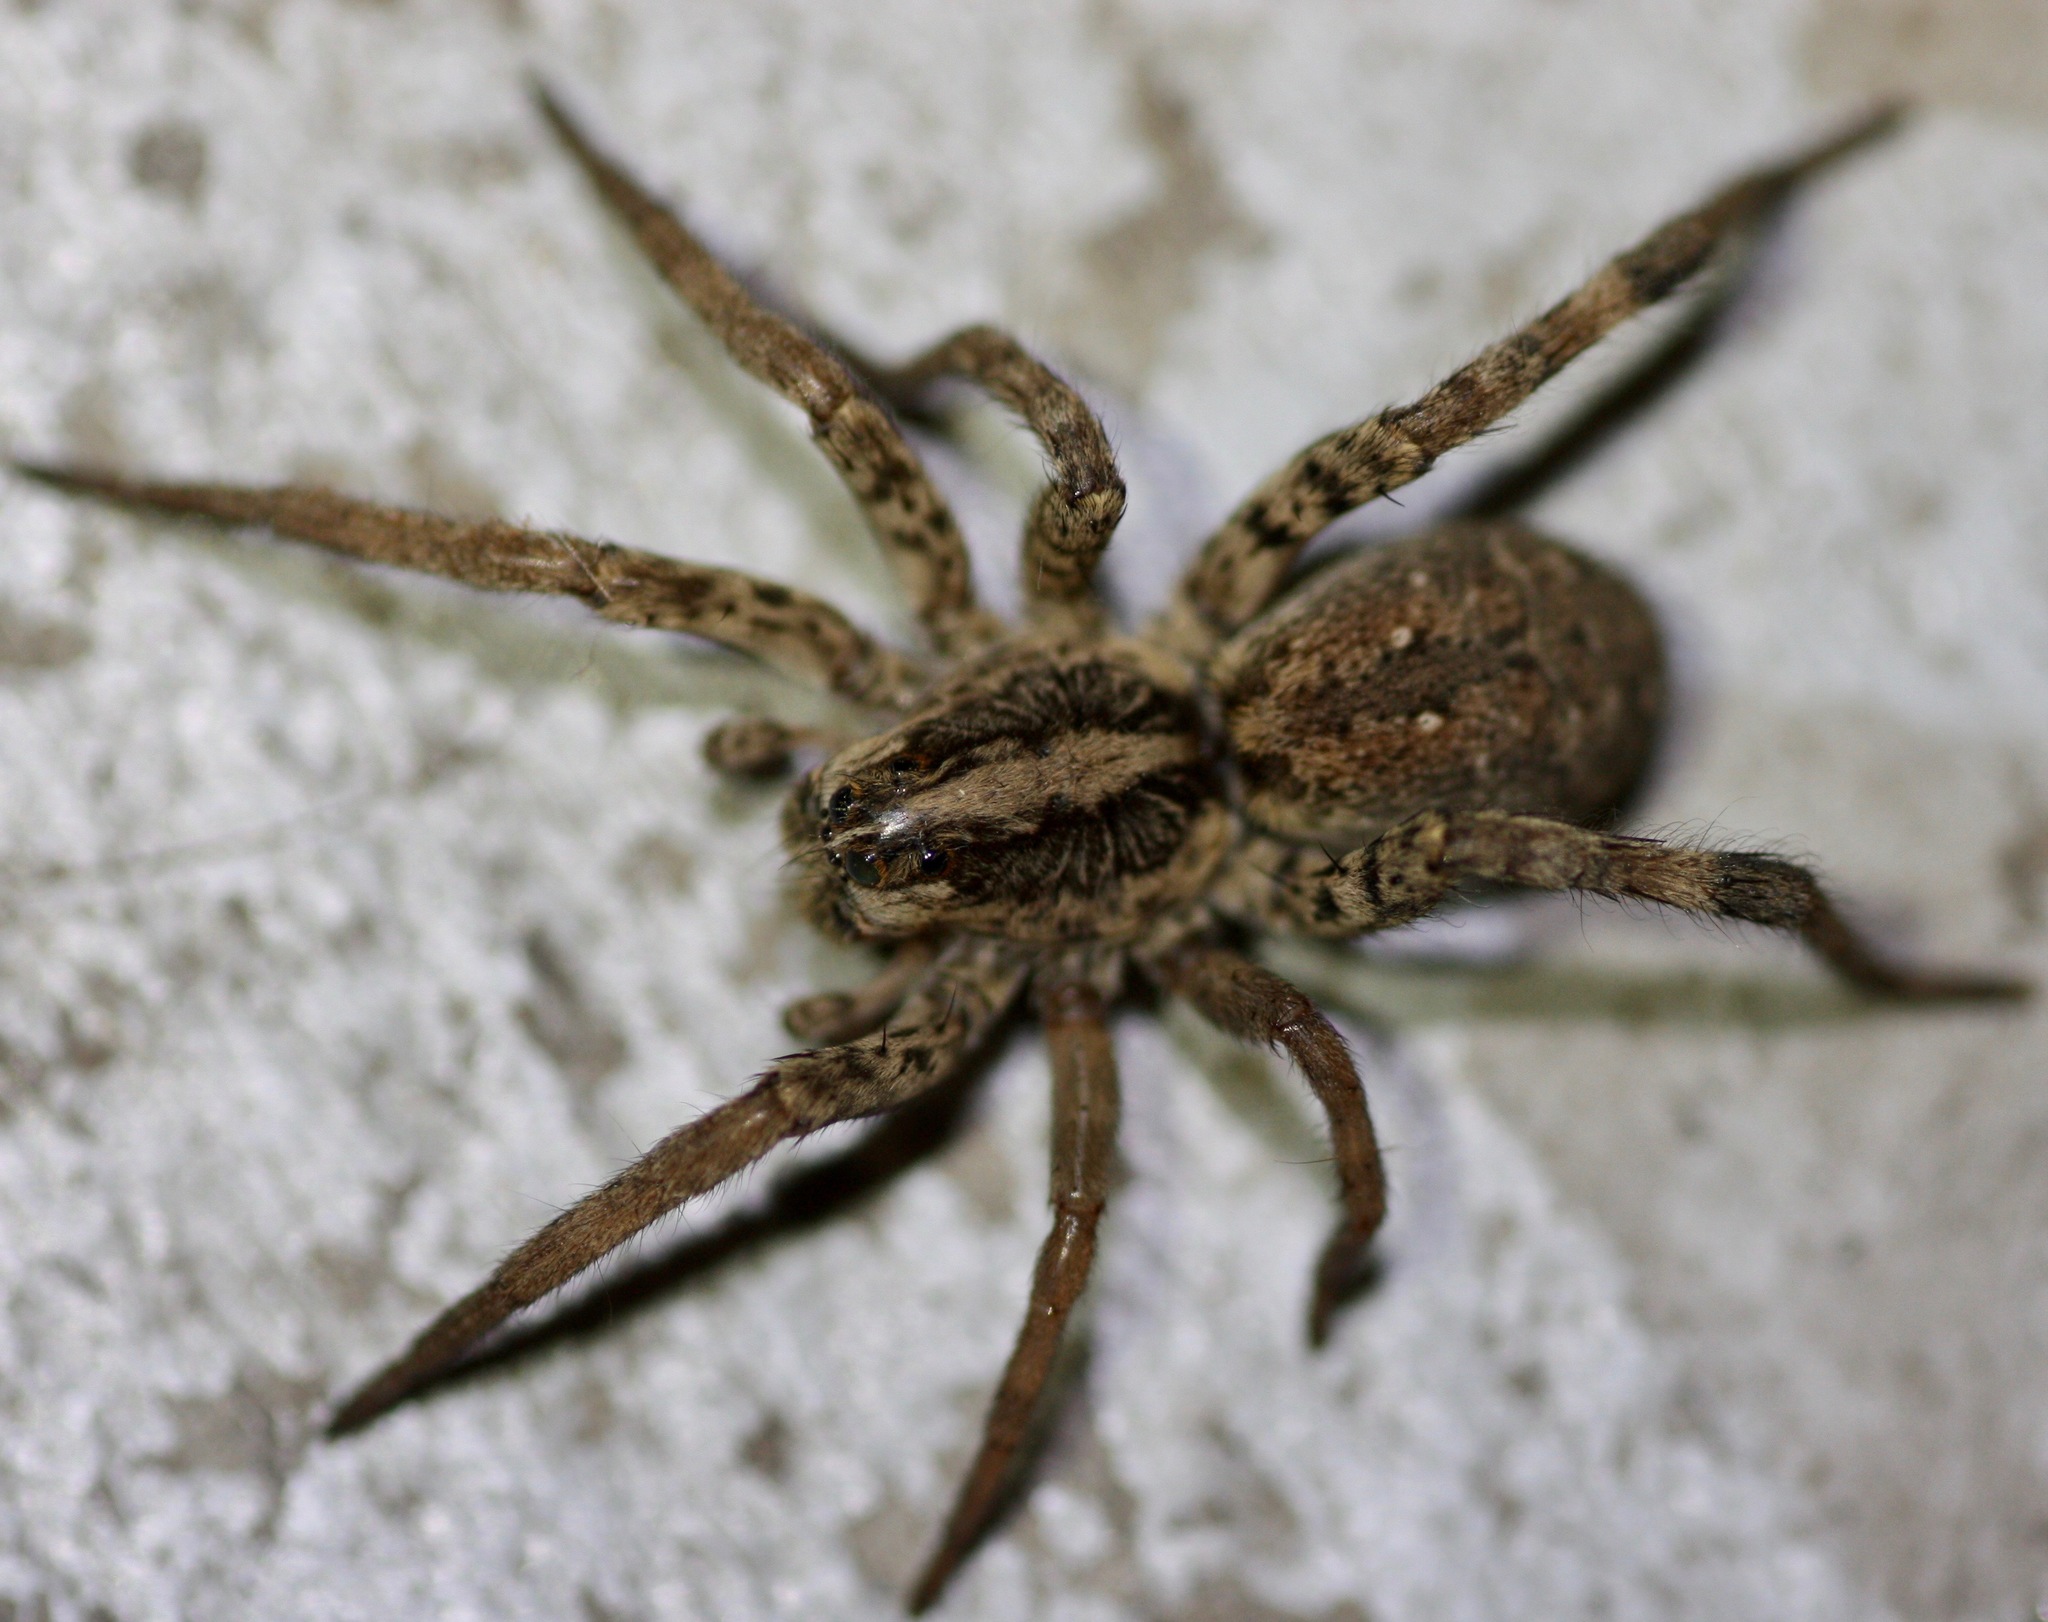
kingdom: Animalia
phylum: Arthropoda
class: Arachnida
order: Araneae
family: Lycosidae
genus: Hogna
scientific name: Hogna antelucana
